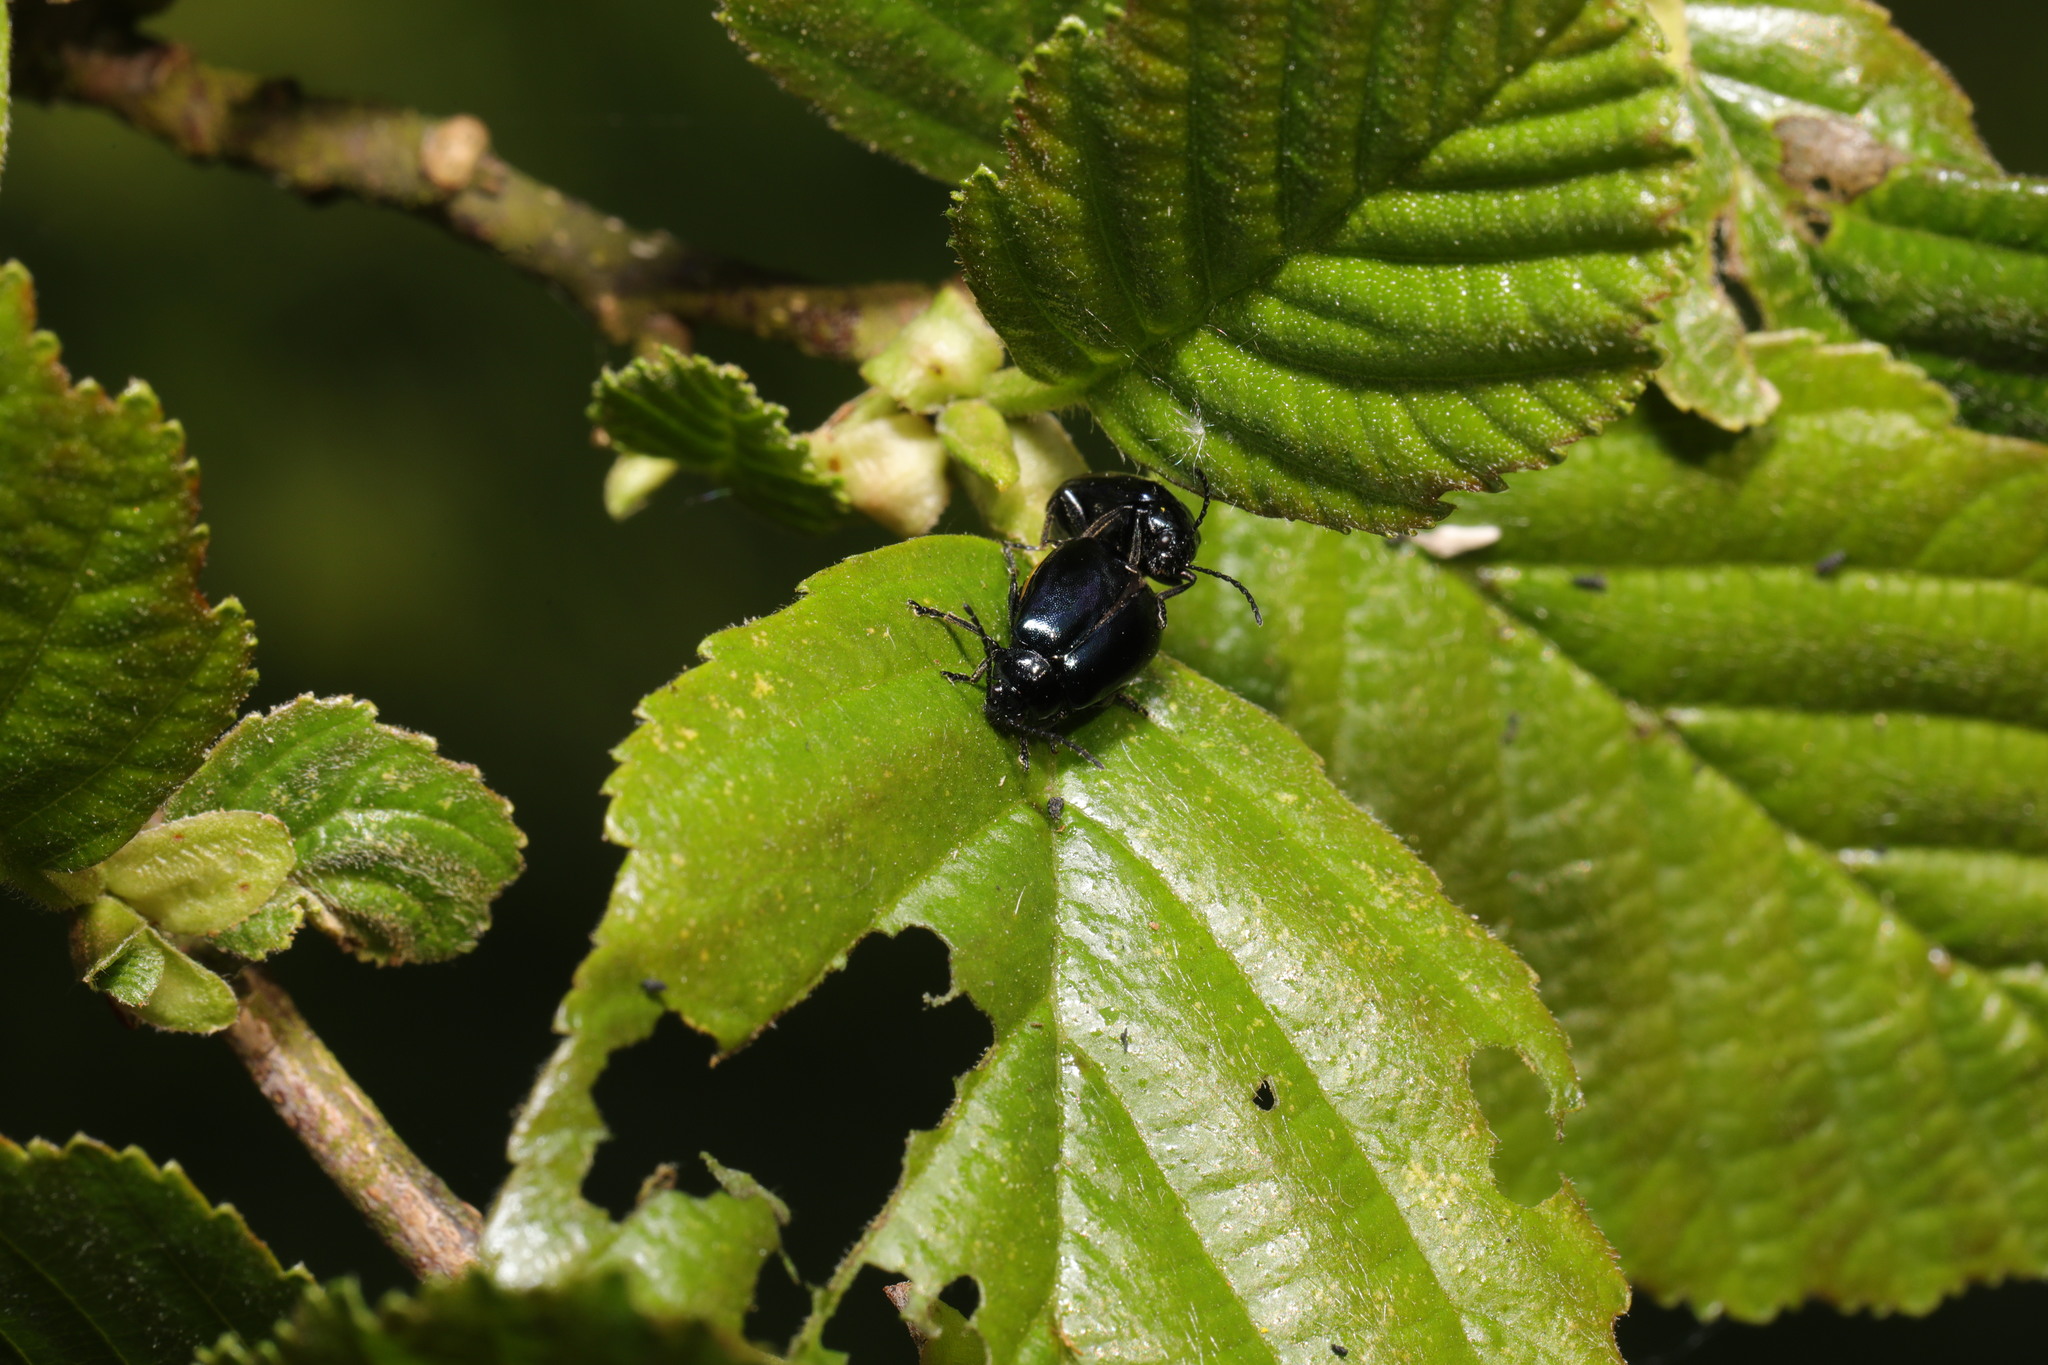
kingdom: Animalia
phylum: Arthropoda
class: Insecta
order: Coleoptera
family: Chrysomelidae
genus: Agelastica
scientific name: Agelastica alni
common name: Alder leaf beetle
